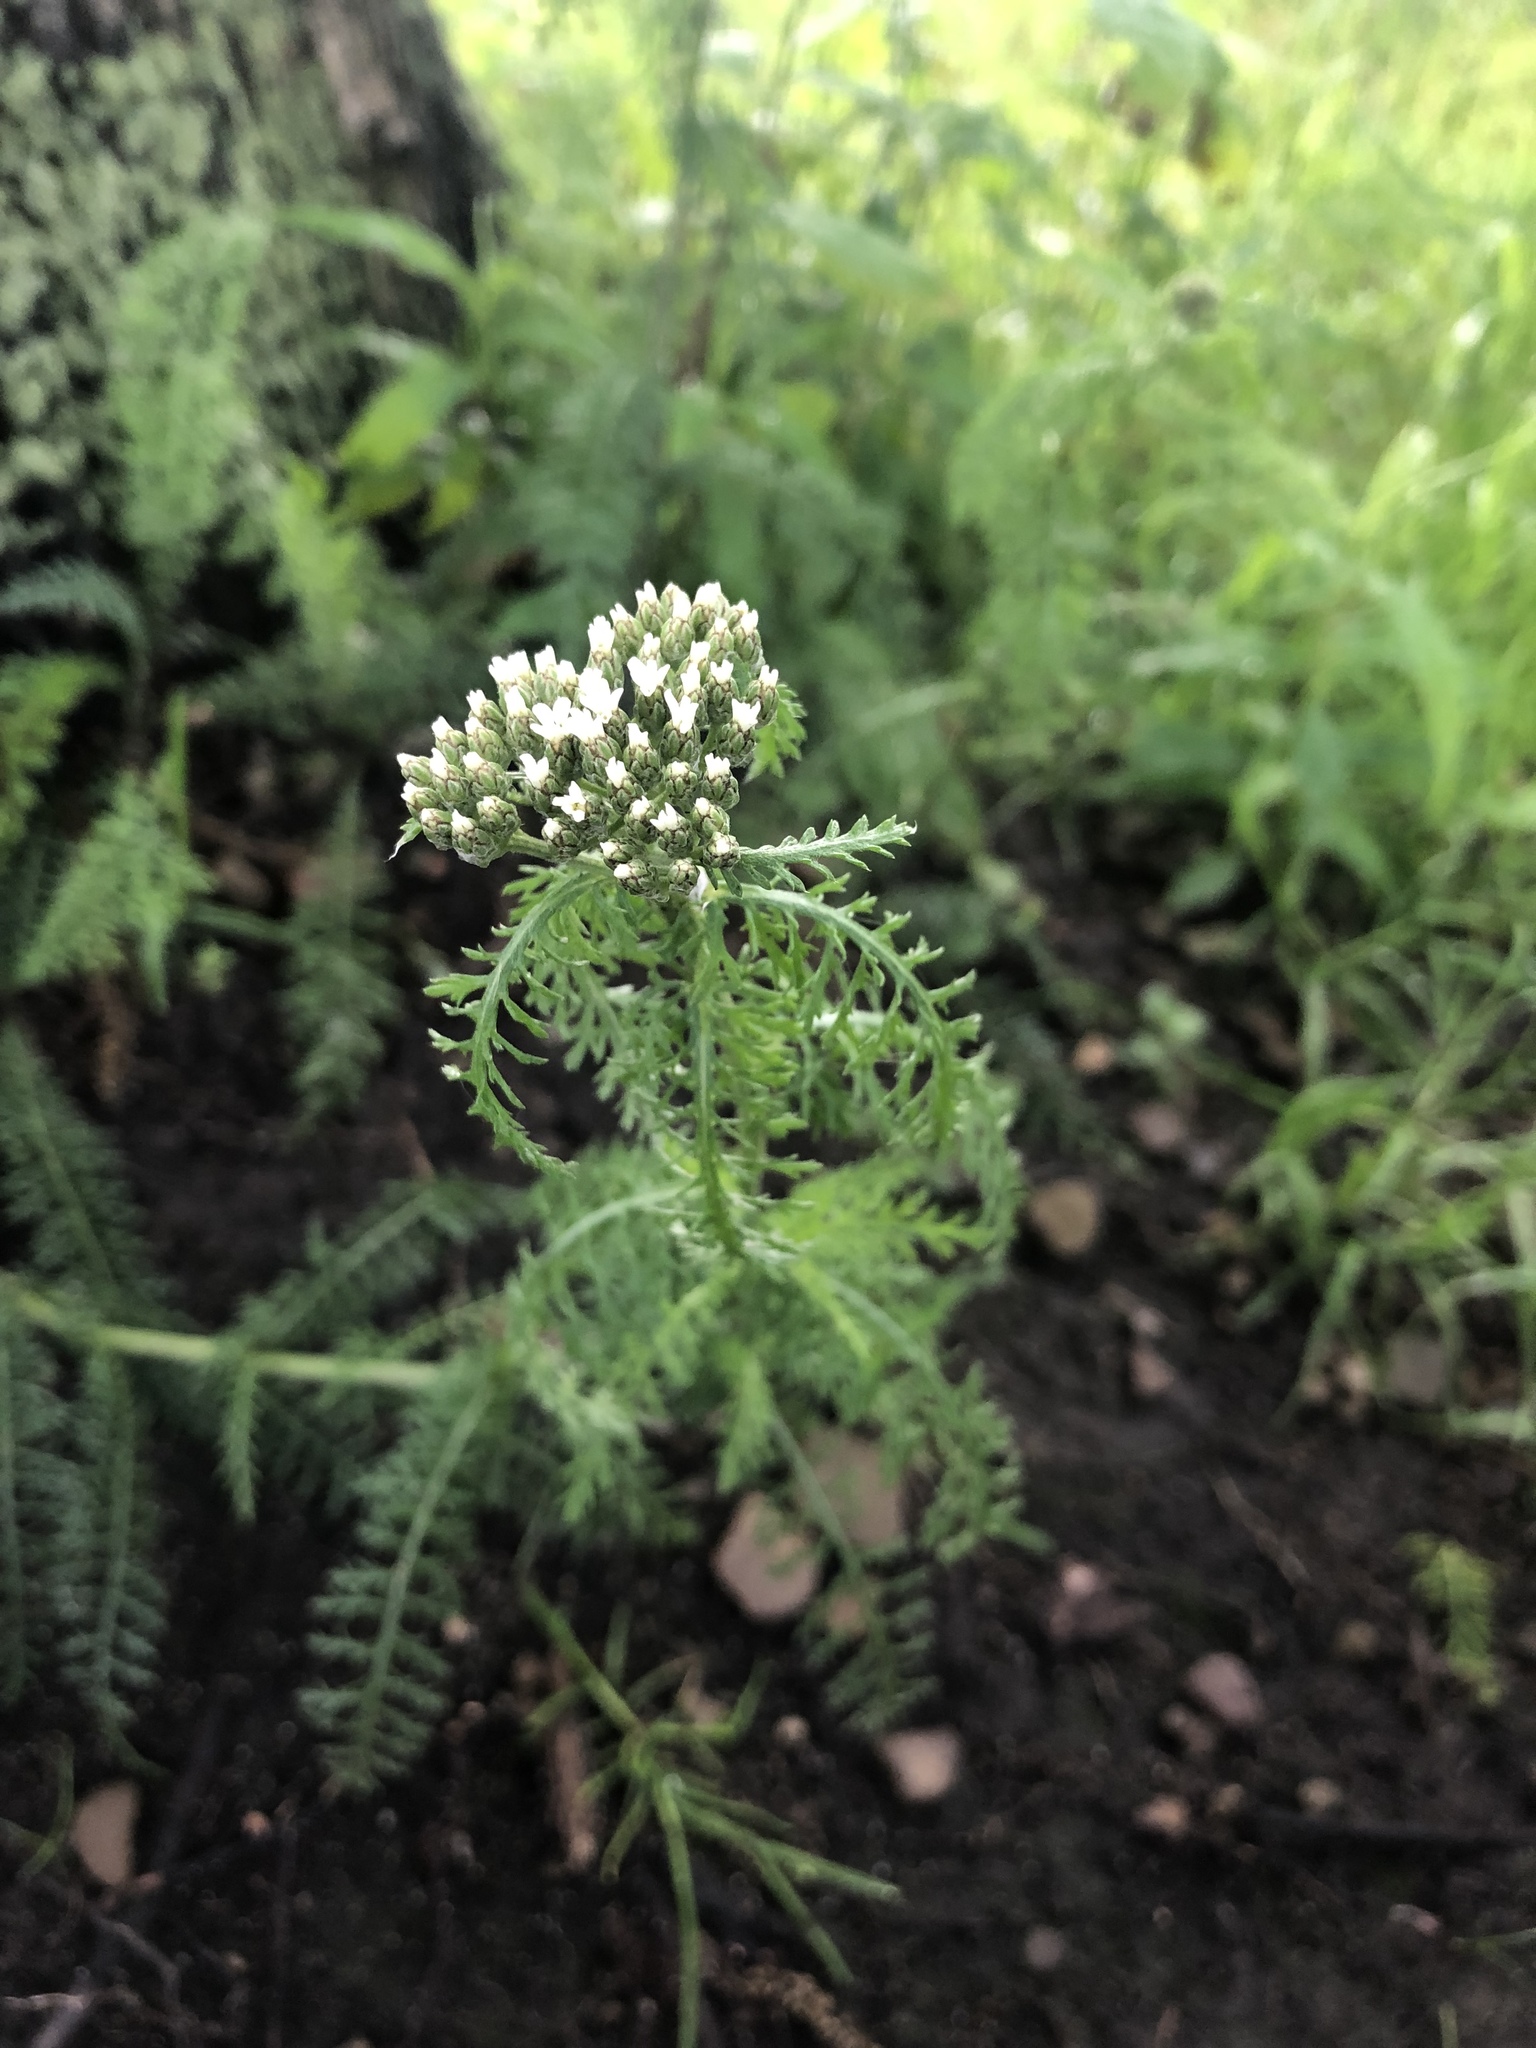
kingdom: Plantae
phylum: Tracheophyta
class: Magnoliopsida
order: Asterales
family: Asteraceae
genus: Achillea
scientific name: Achillea millefolium
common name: Yarrow
